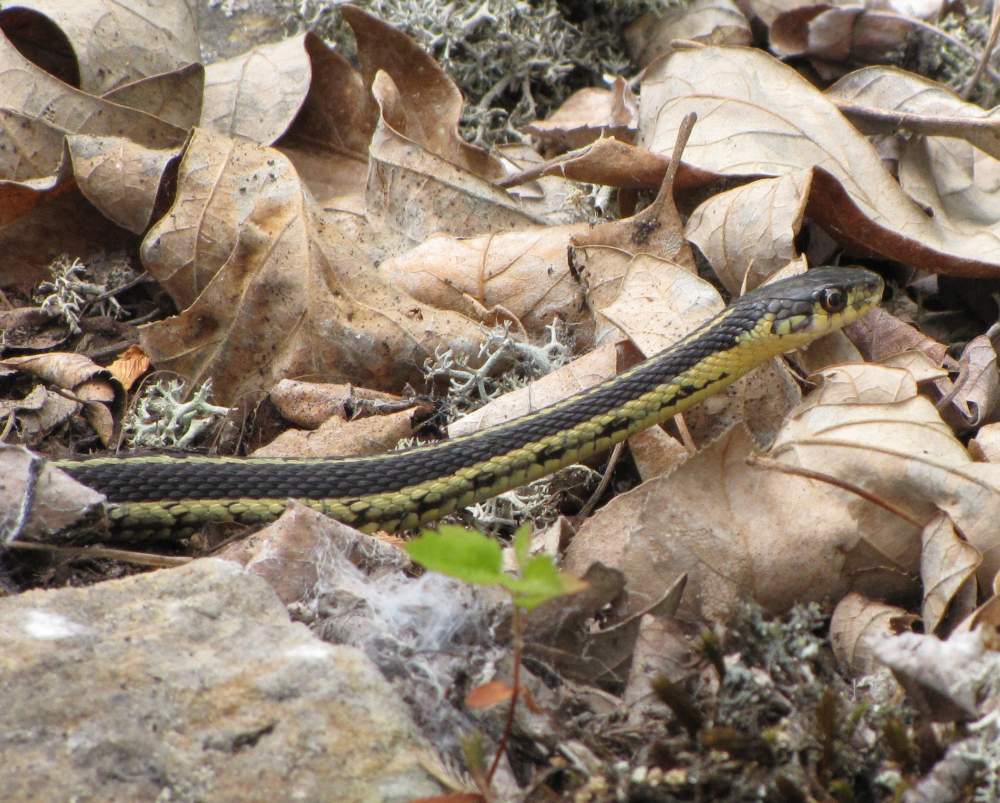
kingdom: Animalia
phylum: Chordata
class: Squamata
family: Colubridae
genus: Thamnophis
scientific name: Thamnophis sirtalis
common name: Common garter snake
